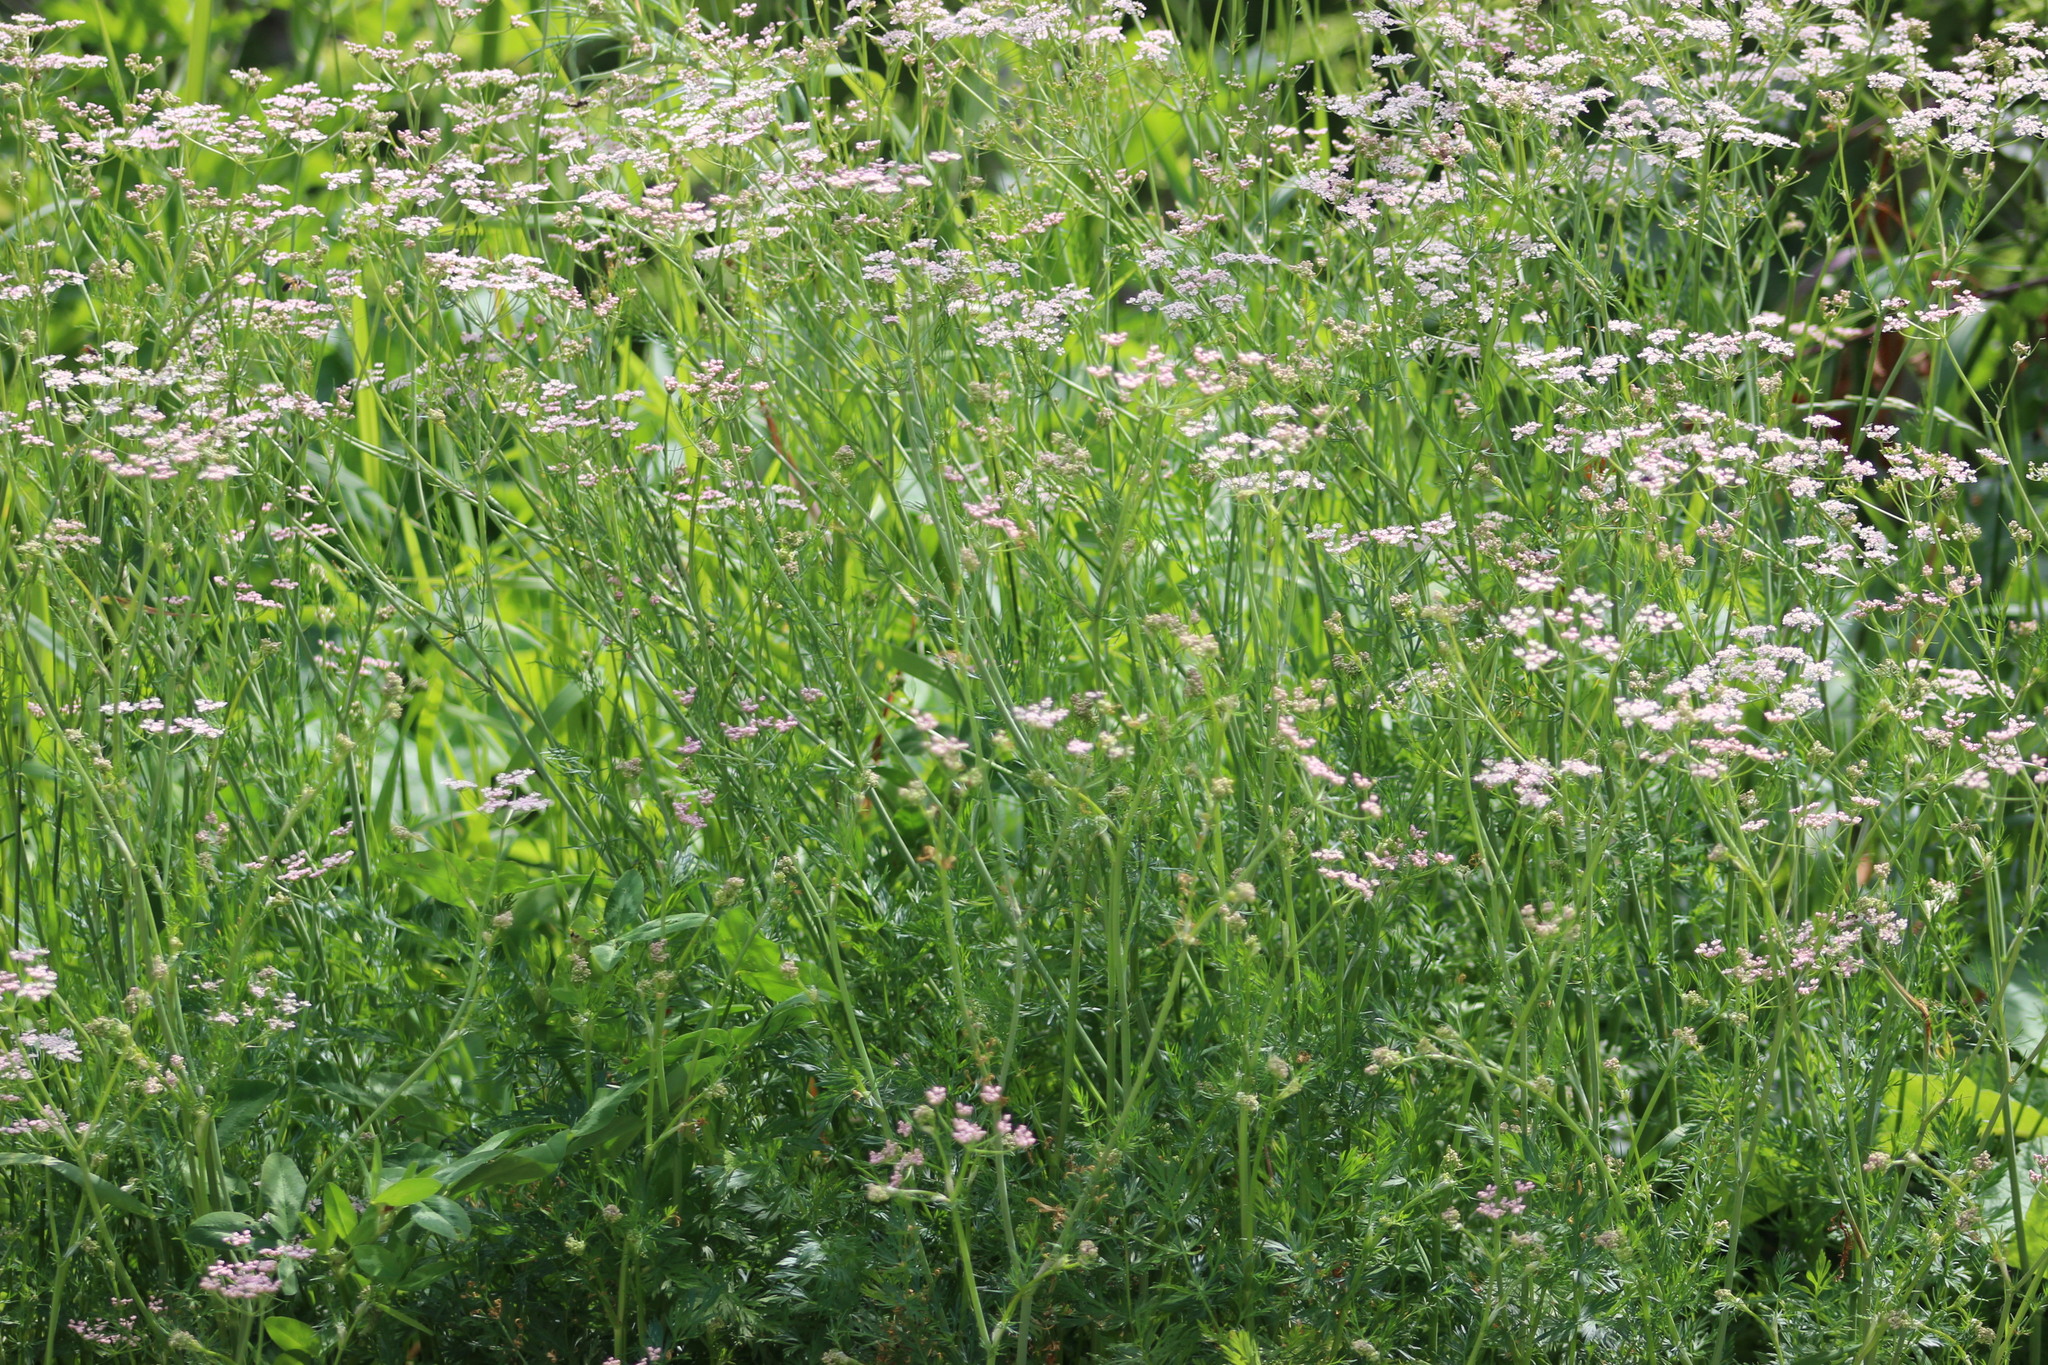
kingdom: Plantae
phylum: Tracheophyta
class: Magnoliopsida
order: Apiales
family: Apiaceae
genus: Carum
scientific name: Carum carvi
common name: Caraway
